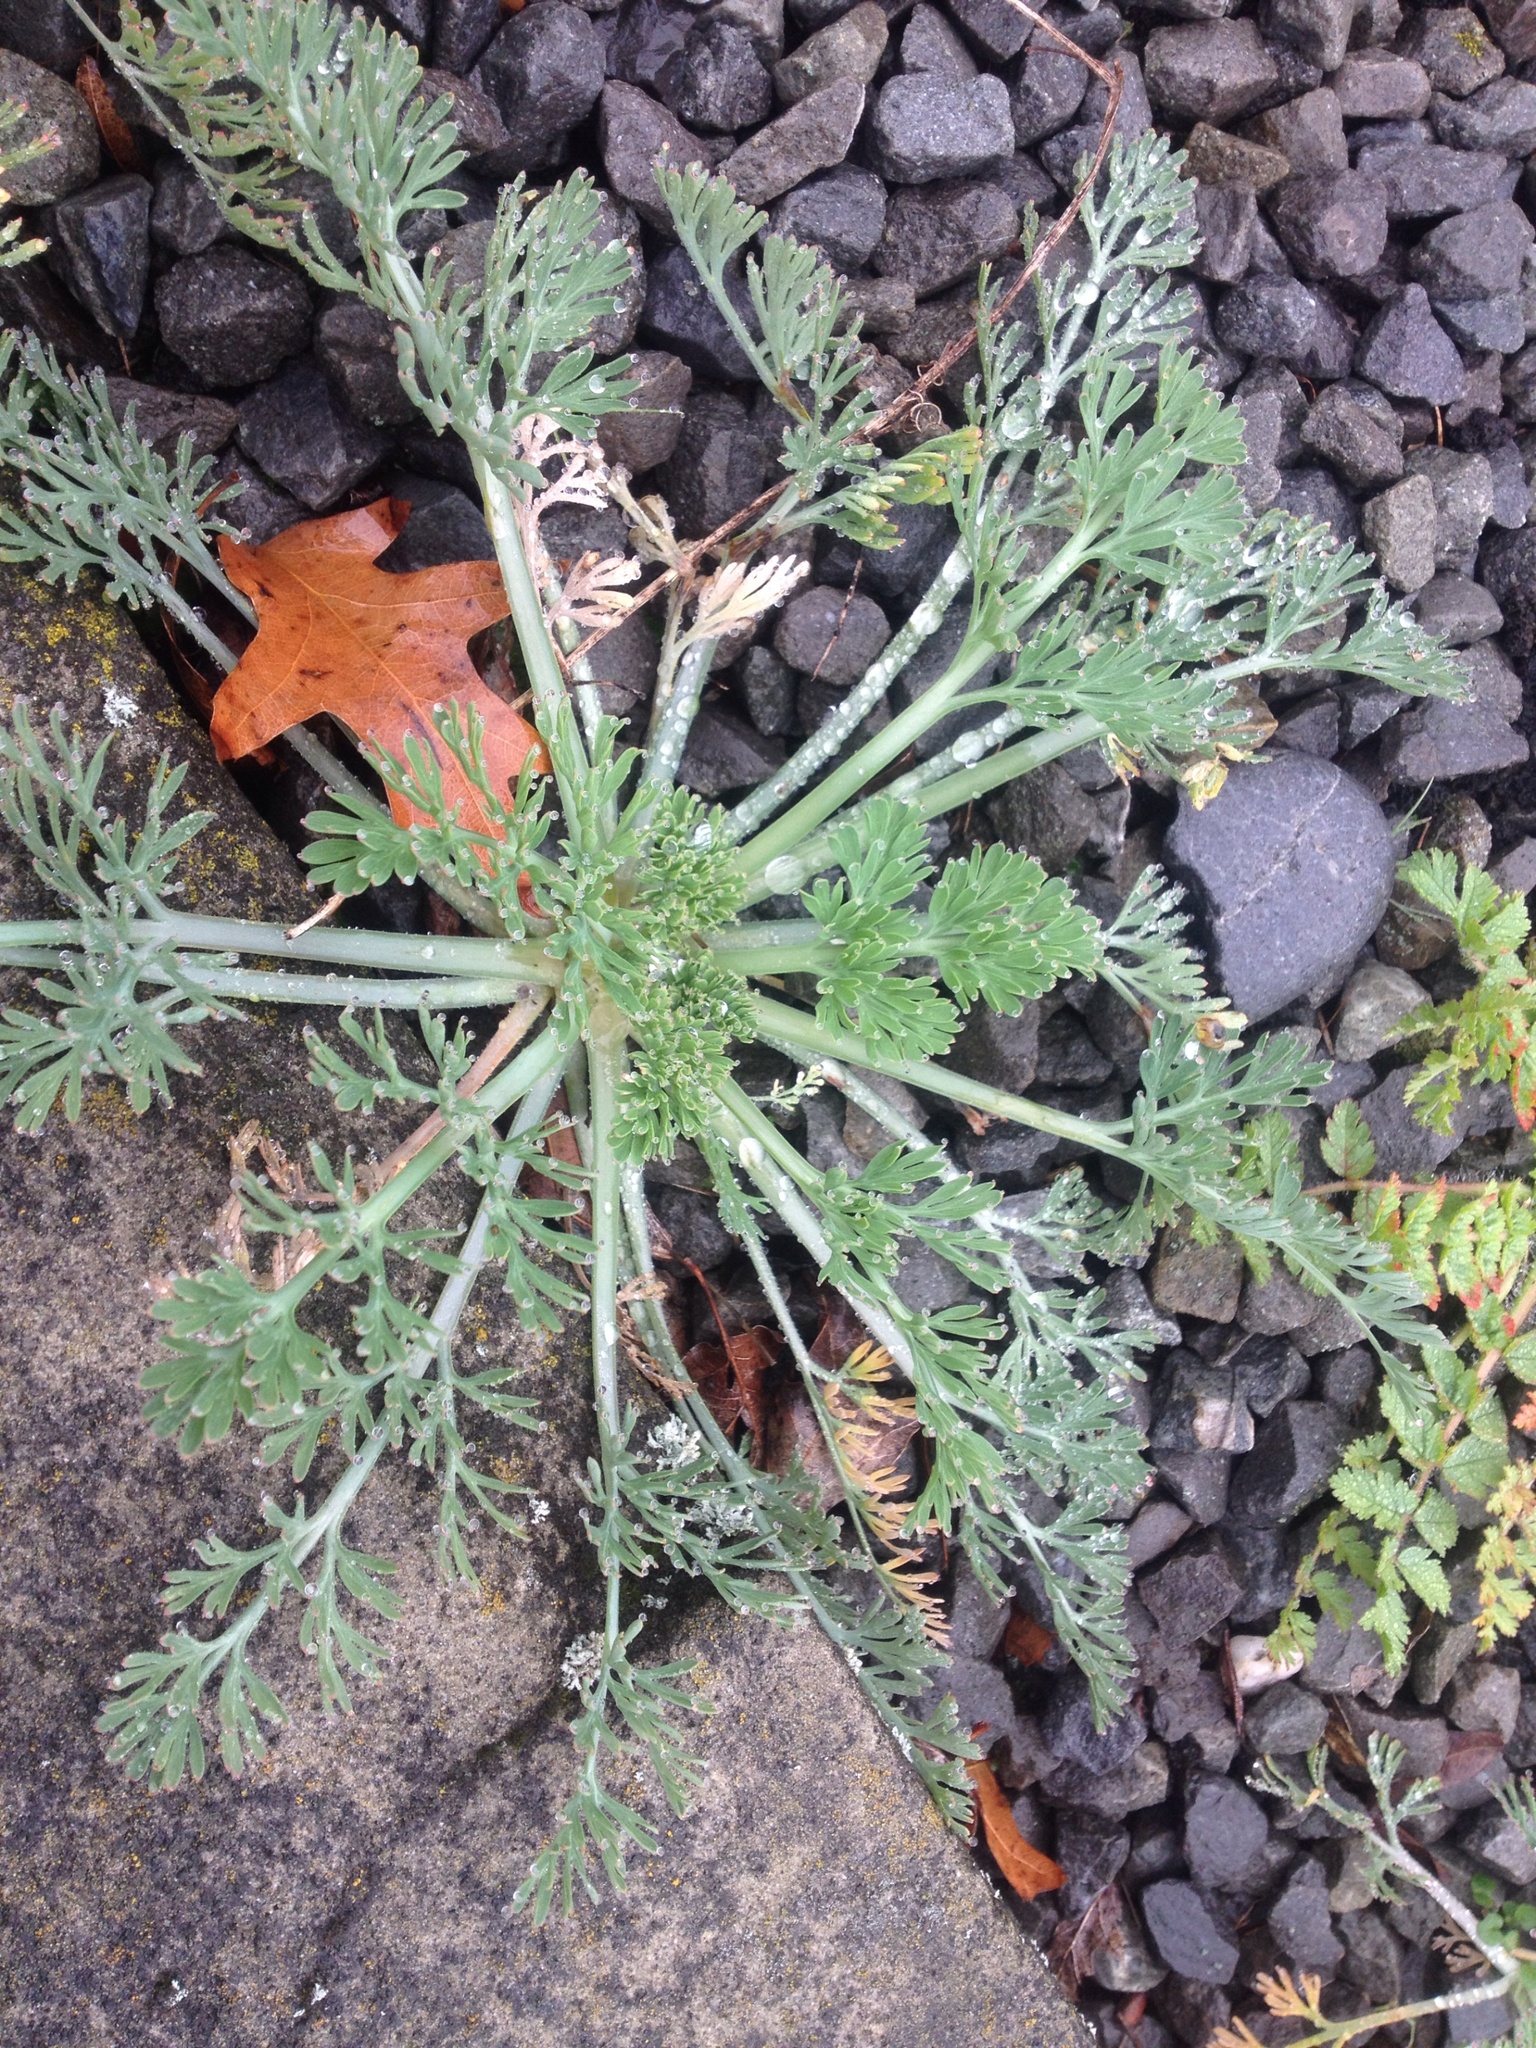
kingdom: Plantae
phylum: Tracheophyta
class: Magnoliopsida
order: Ranunculales
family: Papaveraceae
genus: Eschscholzia
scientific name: Eschscholzia californica
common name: California poppy
